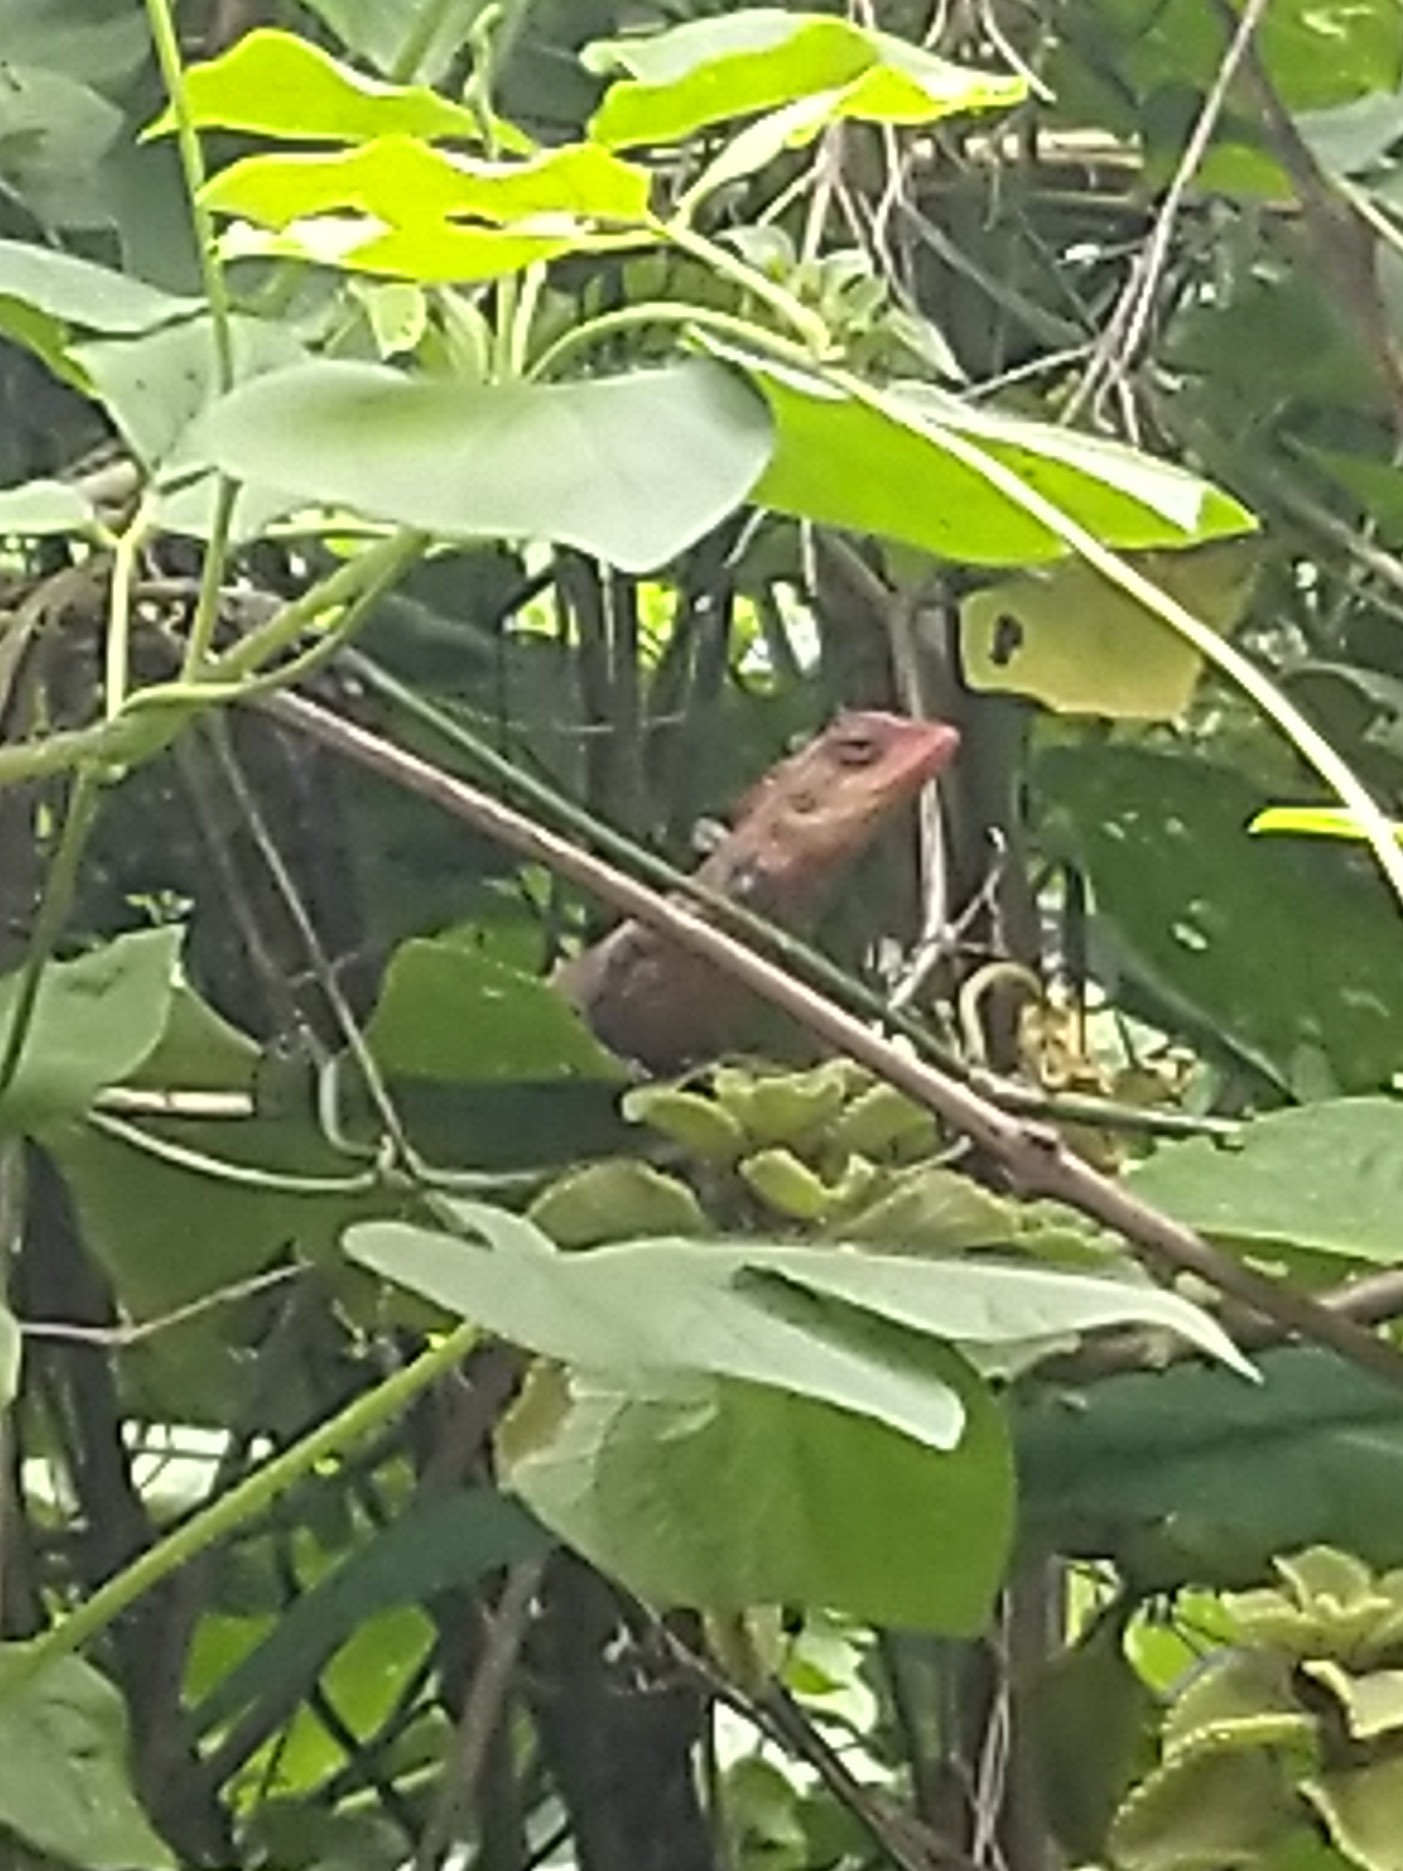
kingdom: Animalia
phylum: Chordata
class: Squamata
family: Agamidae
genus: Calotes
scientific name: Calotes versicolor
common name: Oriental garden lizard
